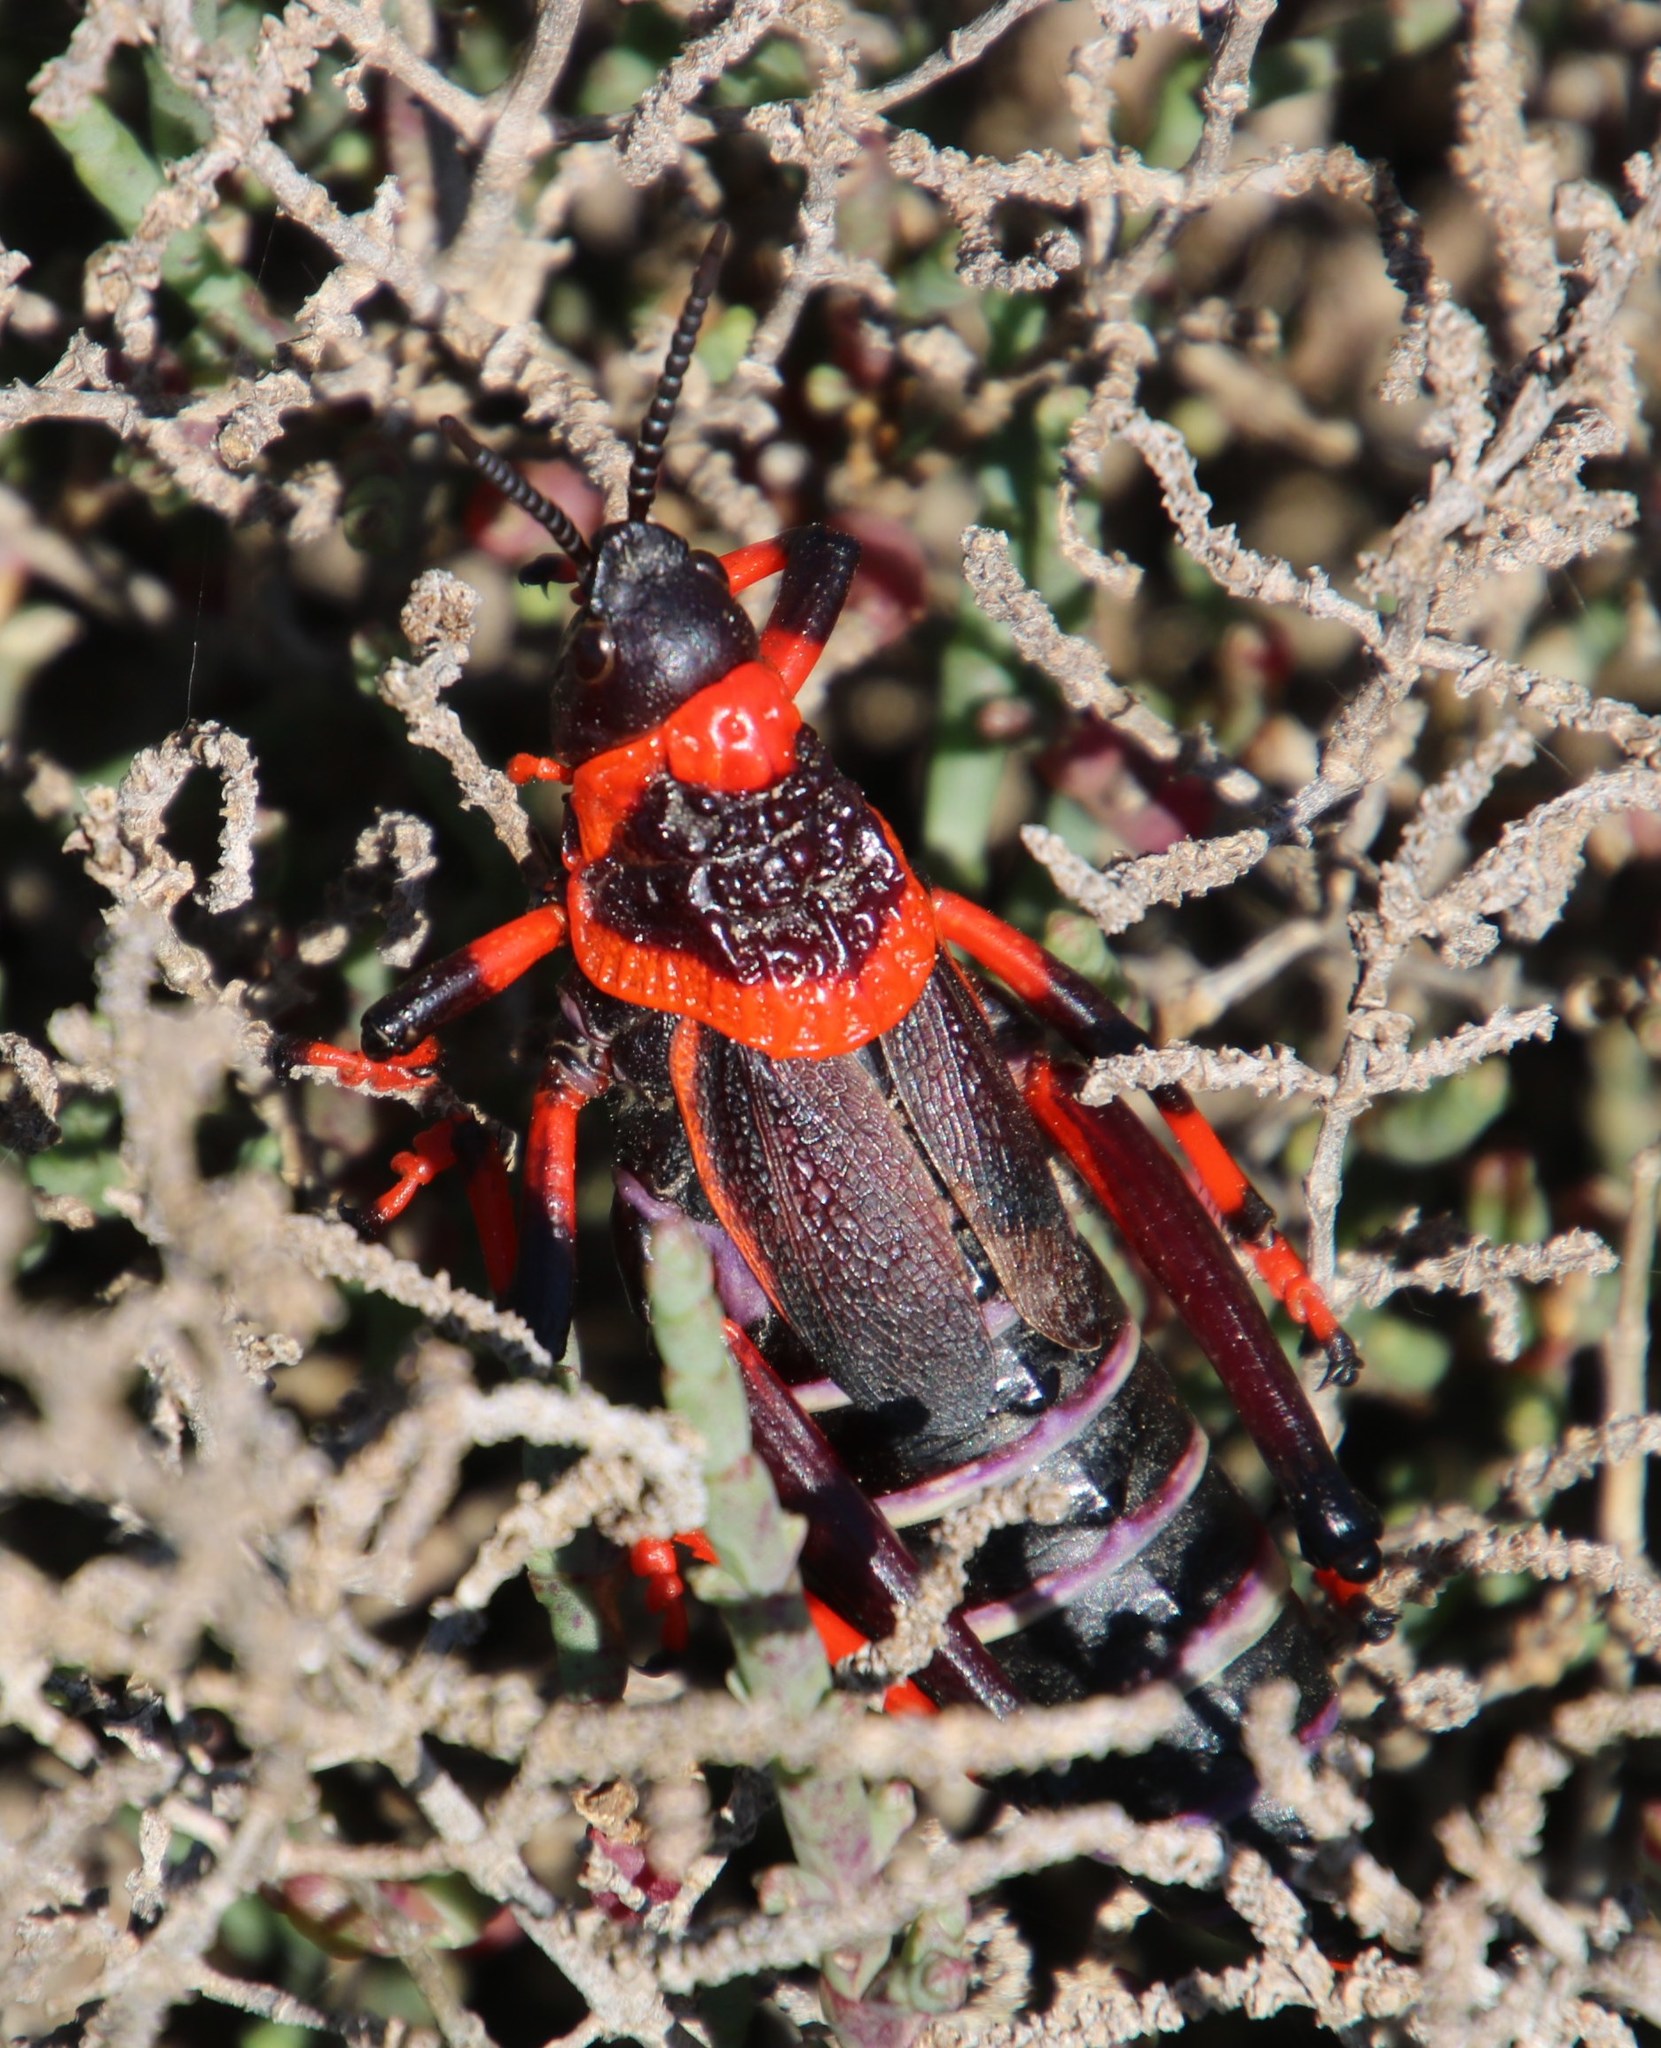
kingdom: Animalia
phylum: Arthropoda
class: Insecta
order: Orthoptera
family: Pyrgomorphidae
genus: Dictyophorus
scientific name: Dictyophorus spumans
